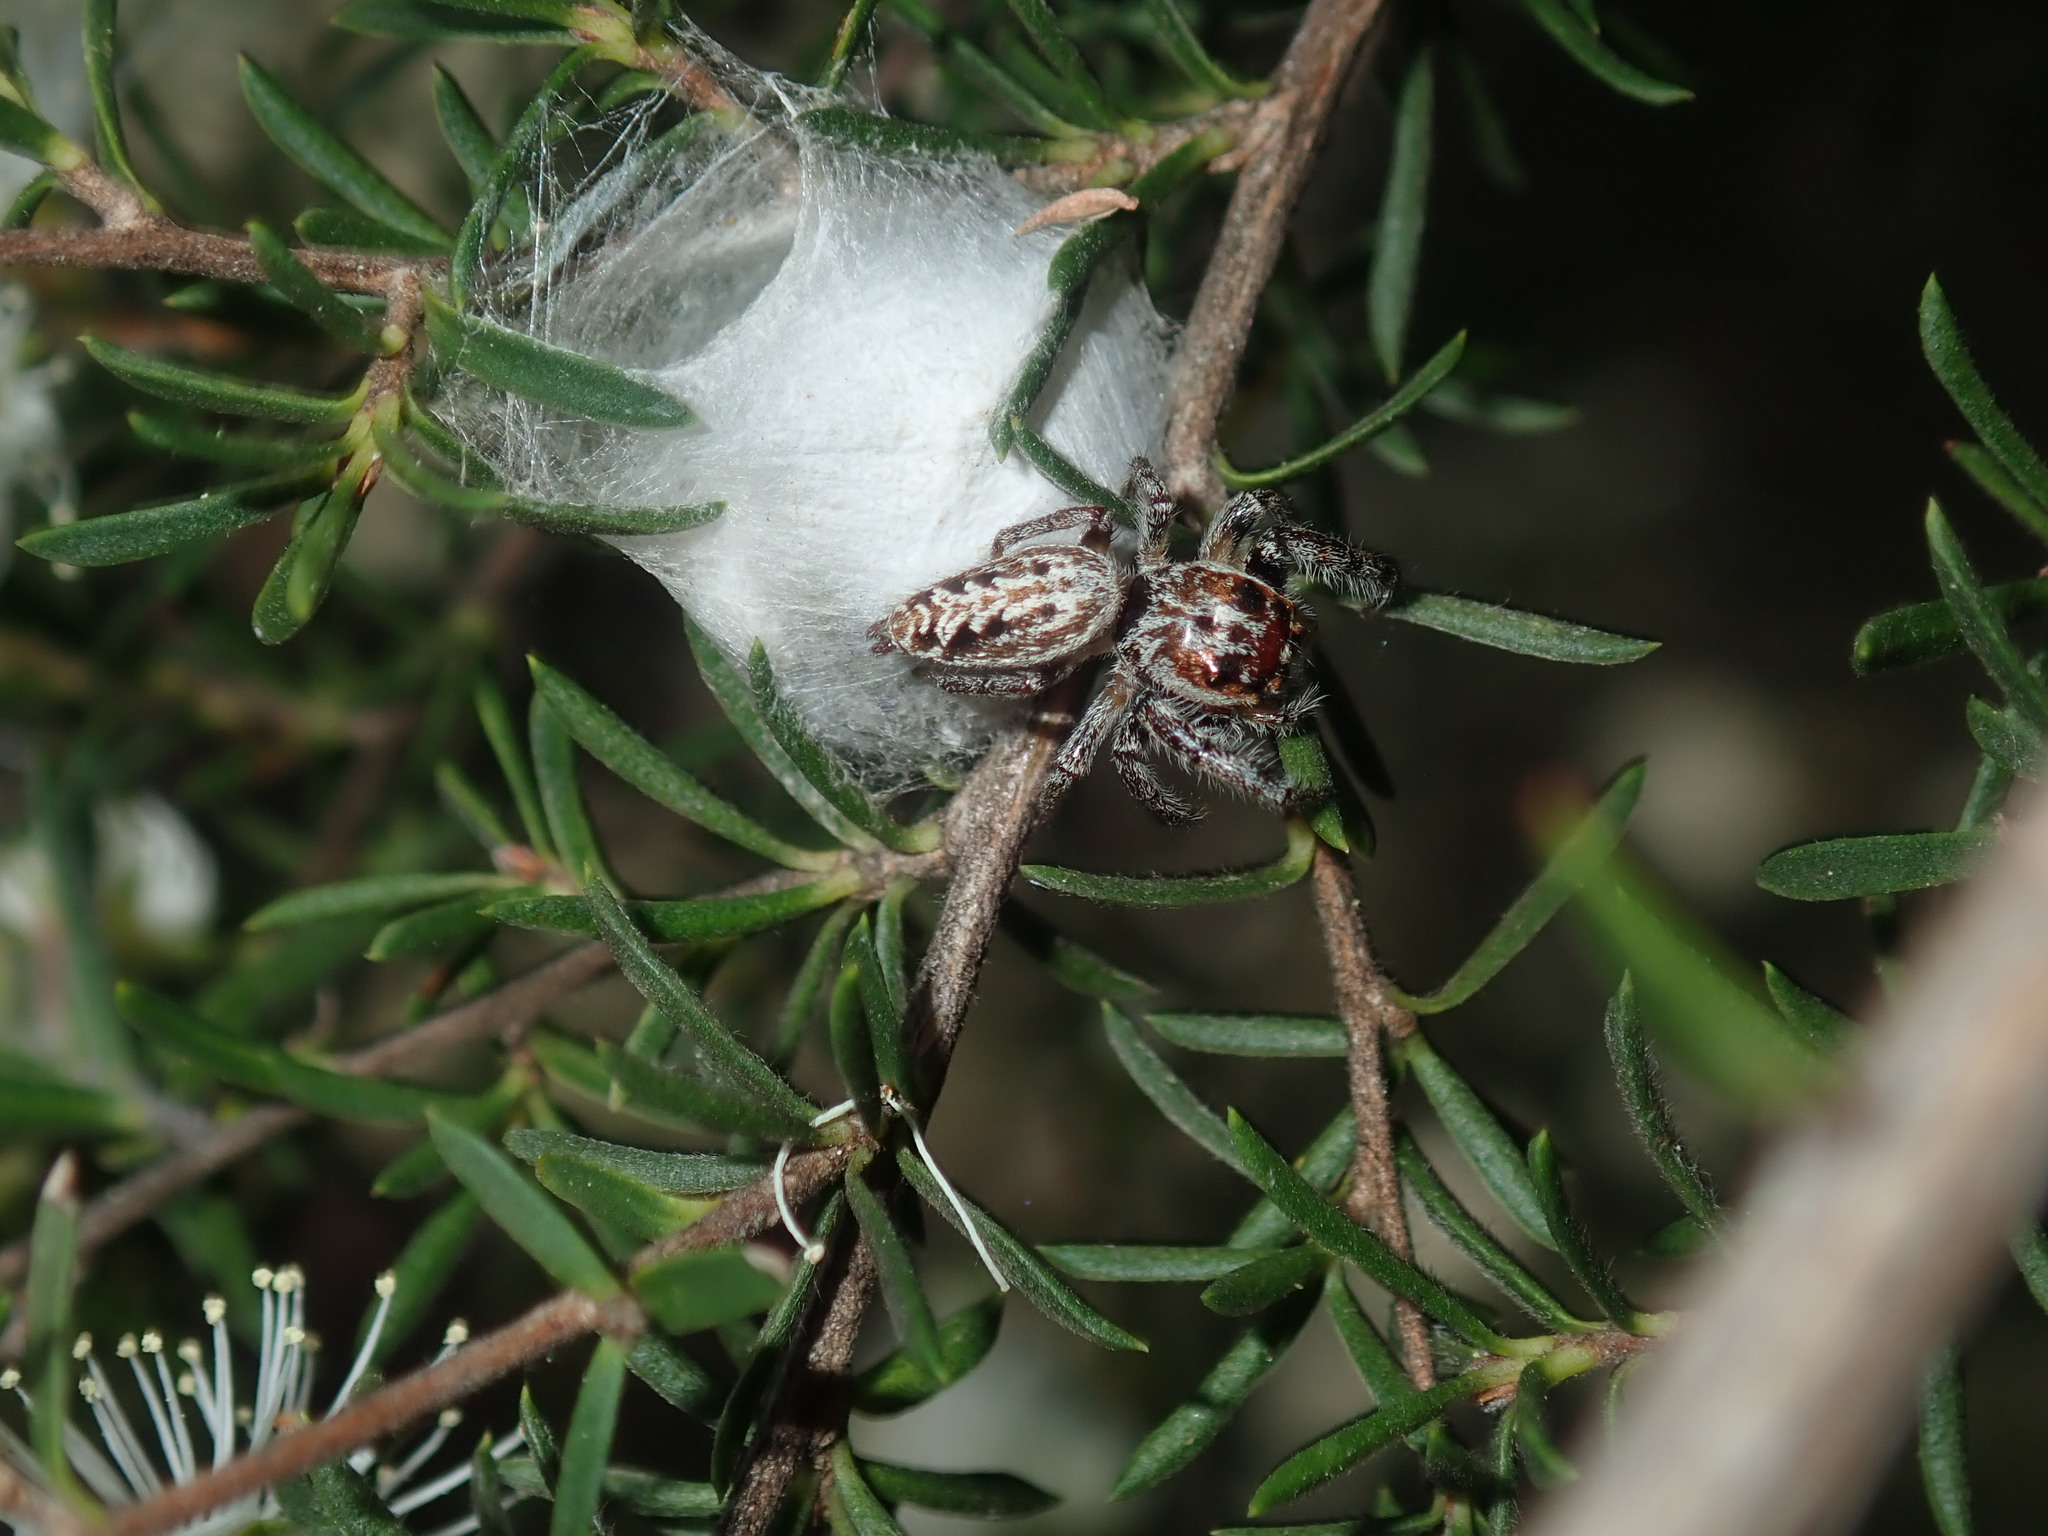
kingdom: Animalia
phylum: Arthropoda
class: Arachnida
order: Araneae
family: Salticidae
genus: Opisthoncus
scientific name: Opisthoncus serratofasciatus
